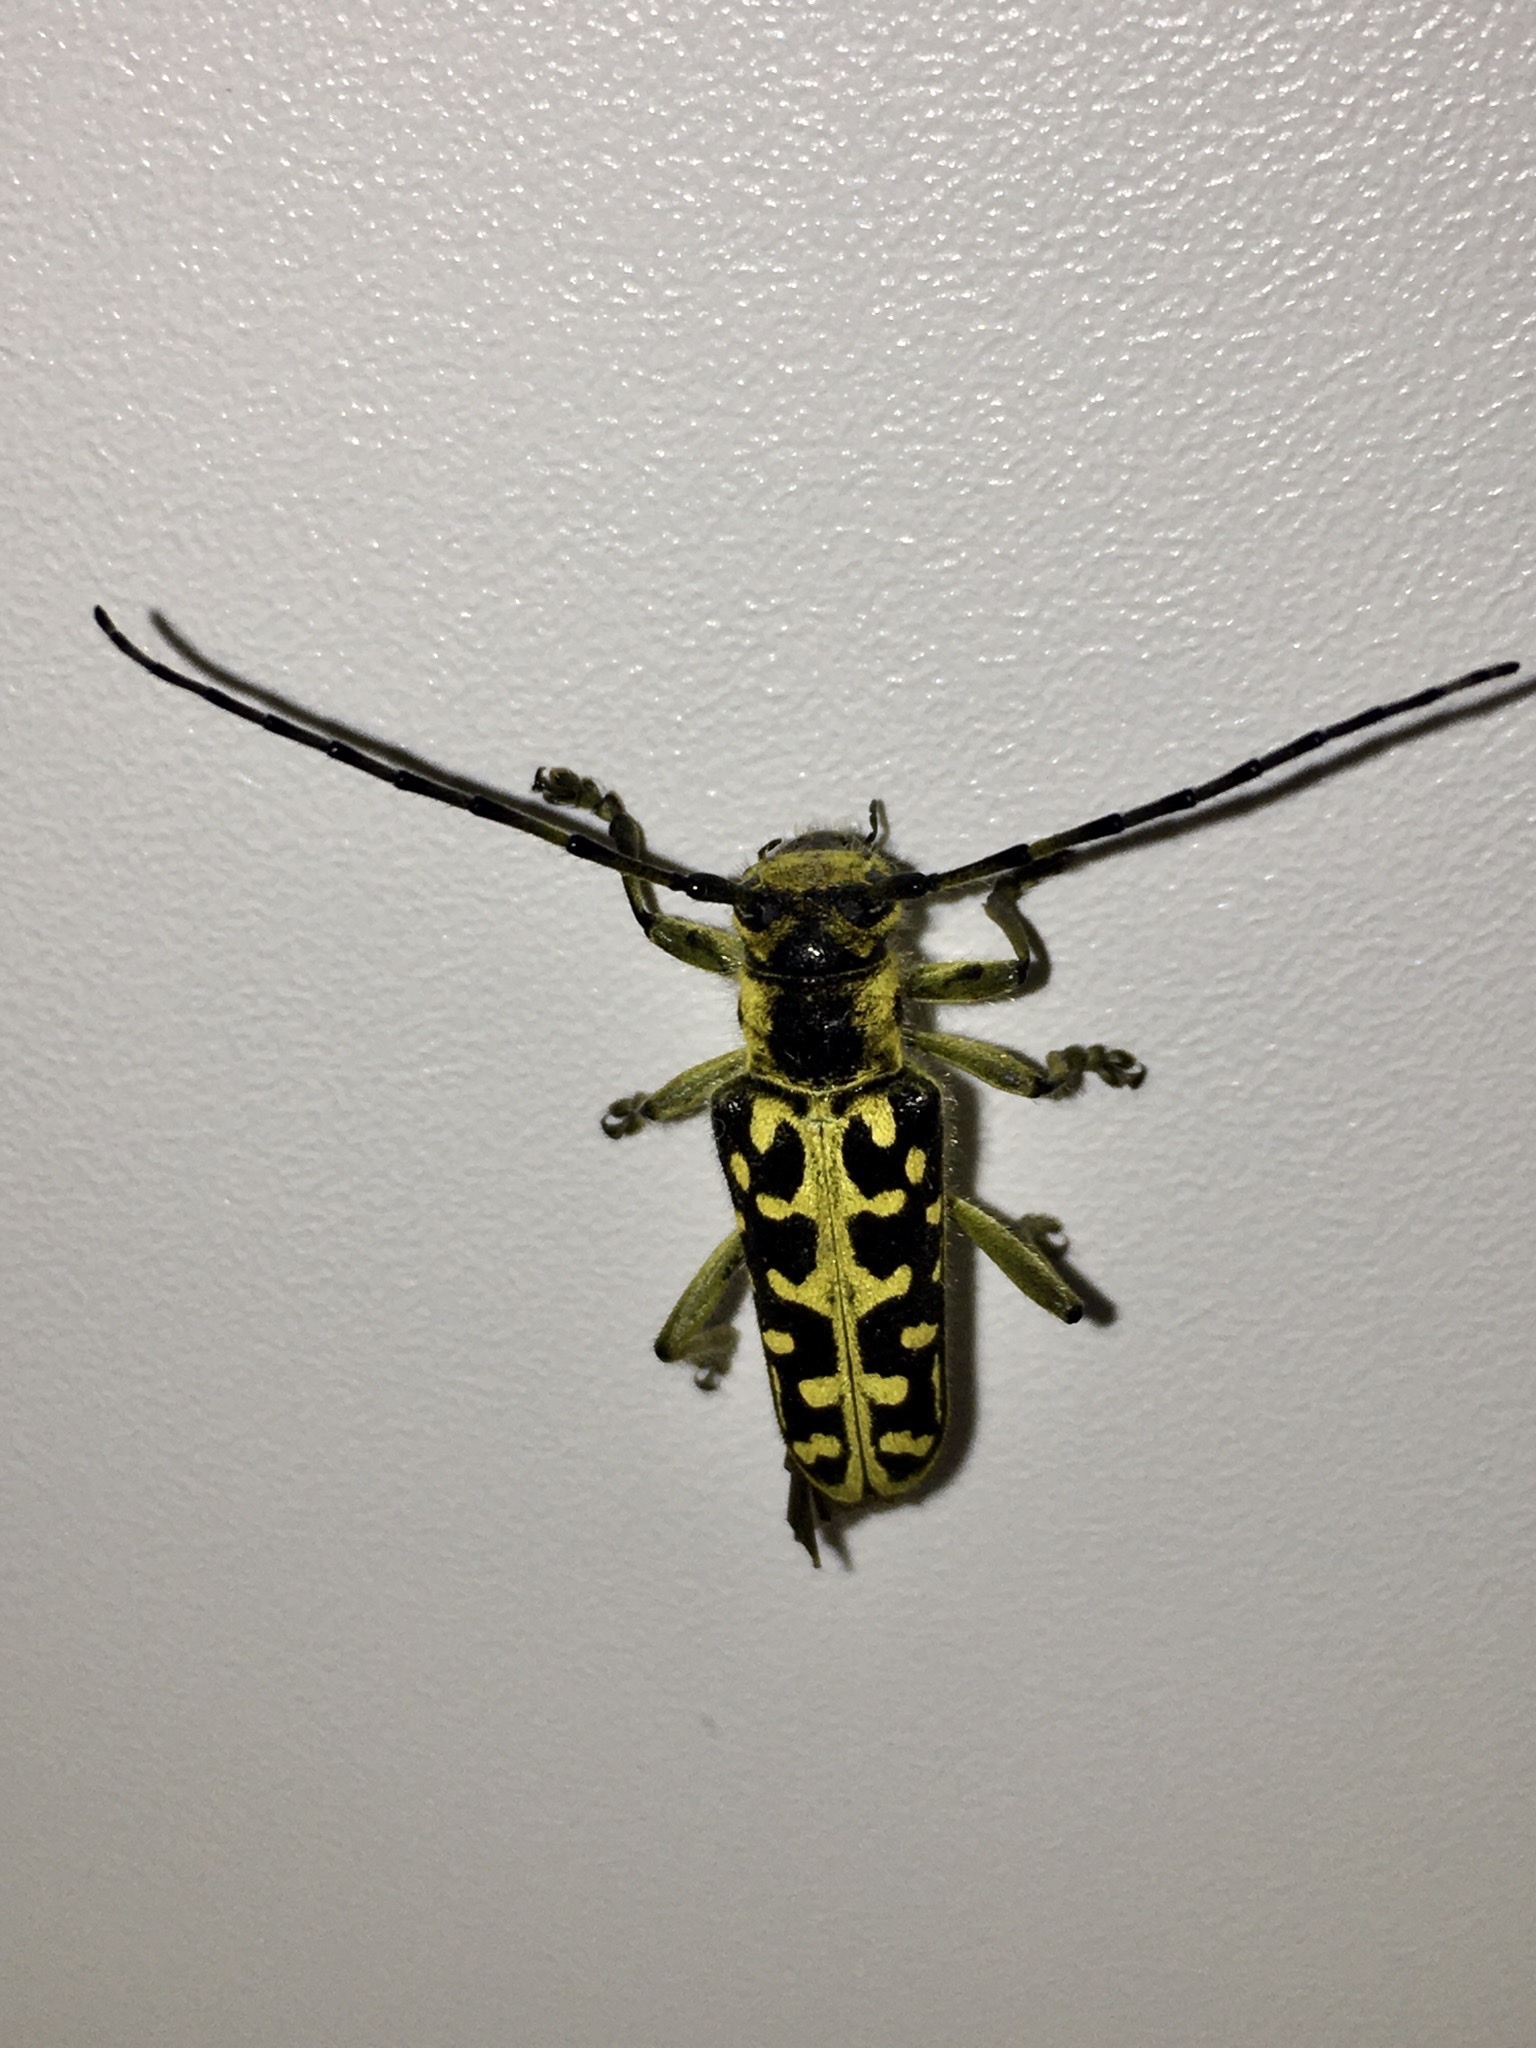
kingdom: Animalia
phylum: Arthropoda
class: Insecta
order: Coleoptera
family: Cerambycidae
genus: Saperda
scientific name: Saperda scalaris
